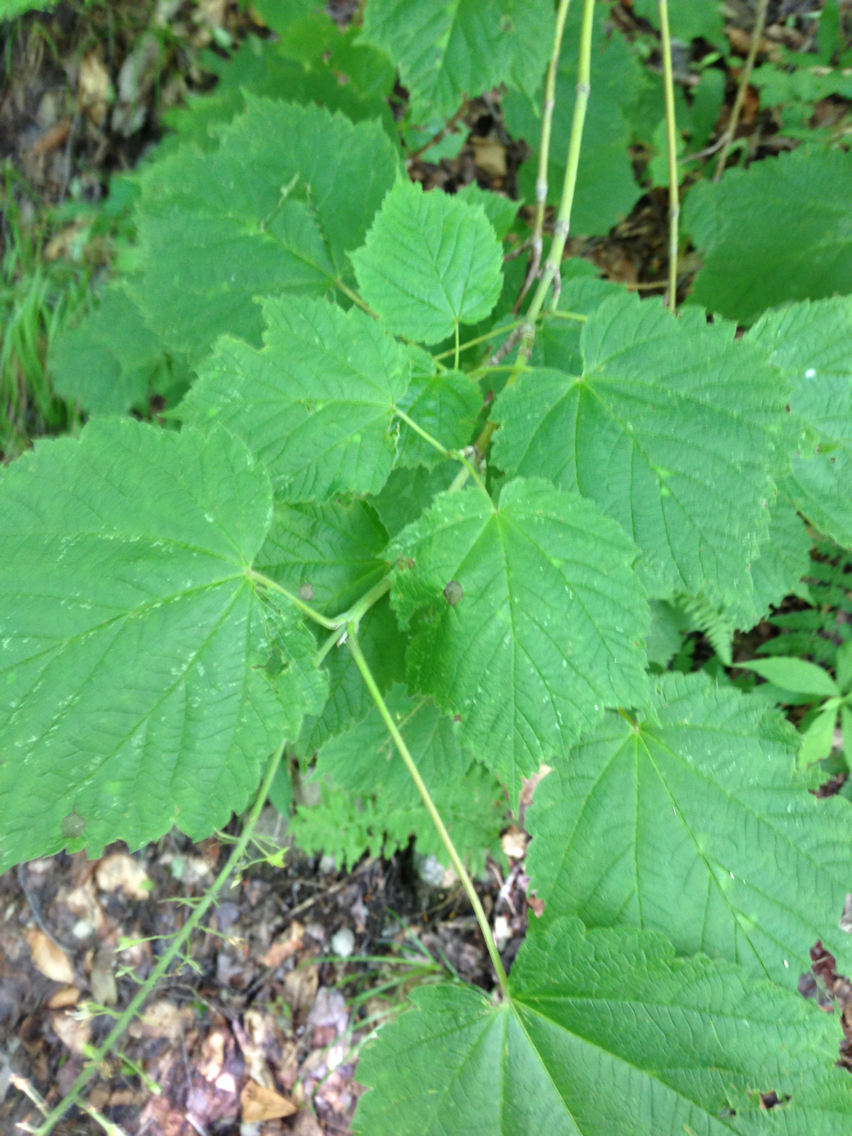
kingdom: Plantae
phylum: Tracheophyta
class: Magnoliopsida
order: Sapindales
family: Sapindaceae
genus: Acer
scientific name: Acer spicatum
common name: Mountain maple
